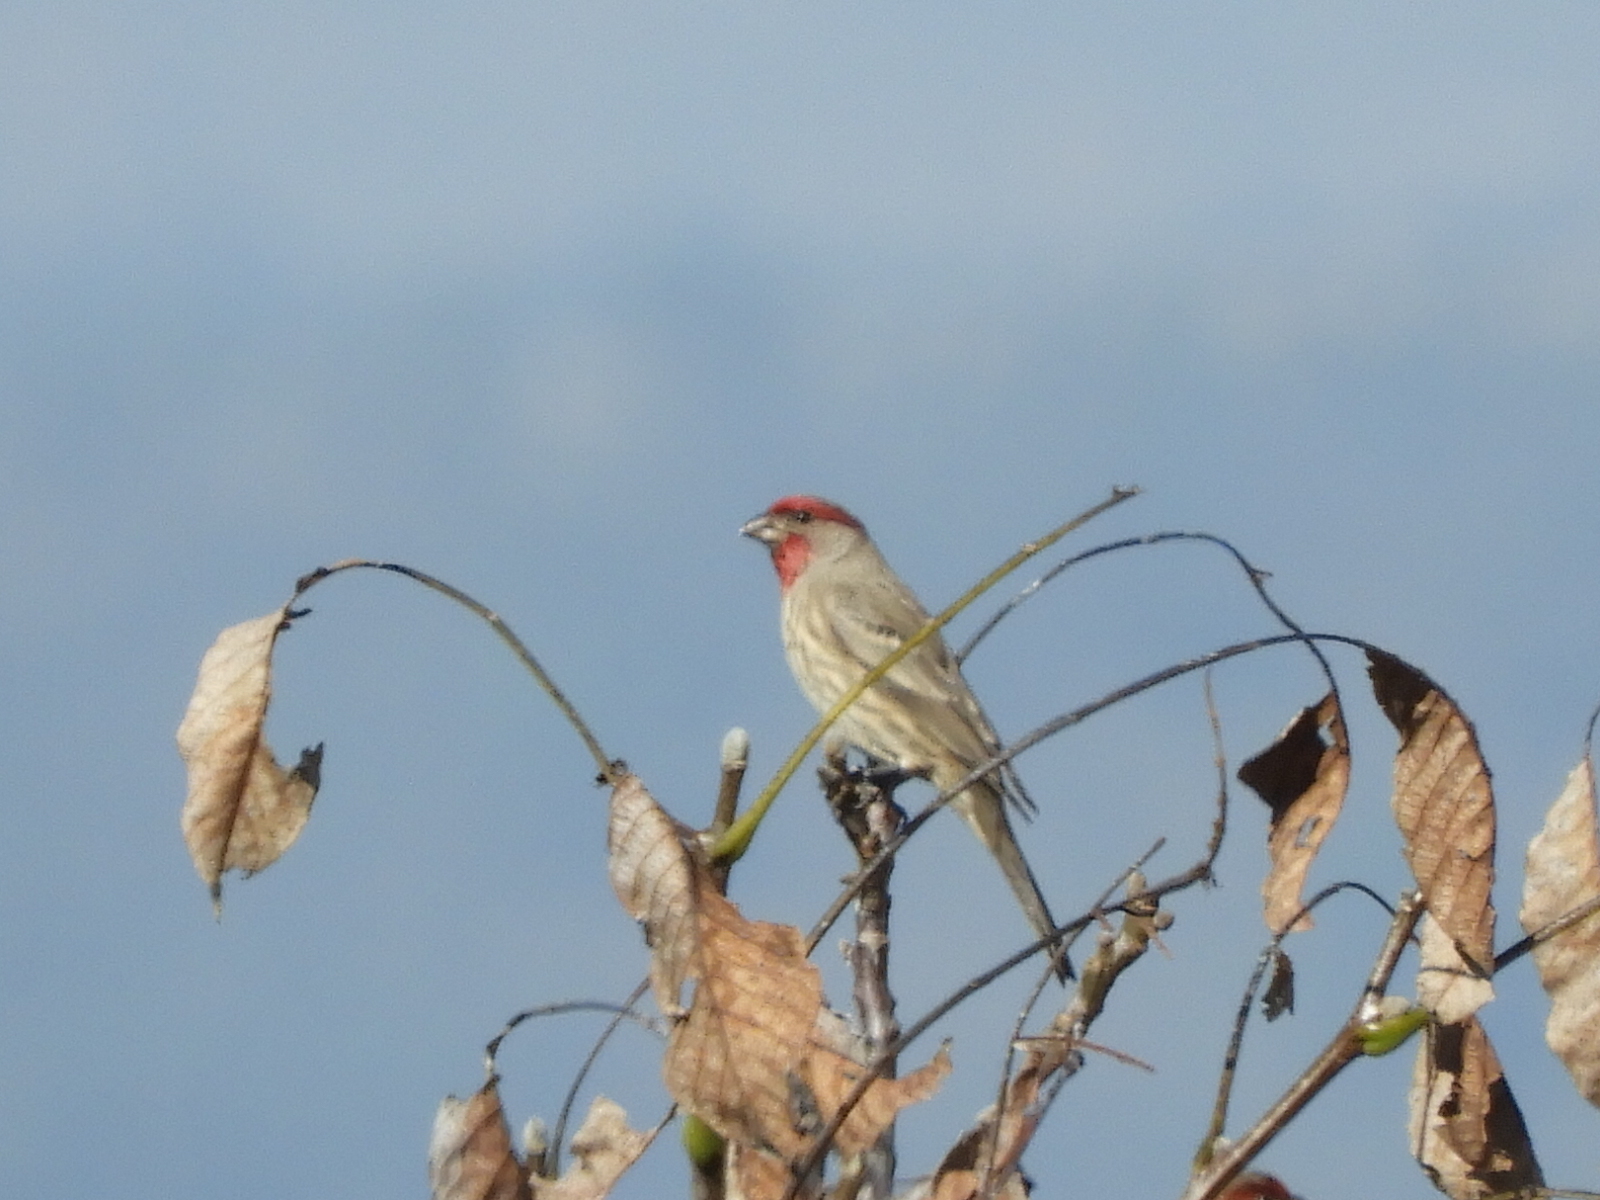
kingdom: Animalia
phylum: Chordata
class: Aves
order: Passeriformes
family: Fringillidae
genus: Haemorhous
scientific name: Haemorhous mexicanus
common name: House finch
